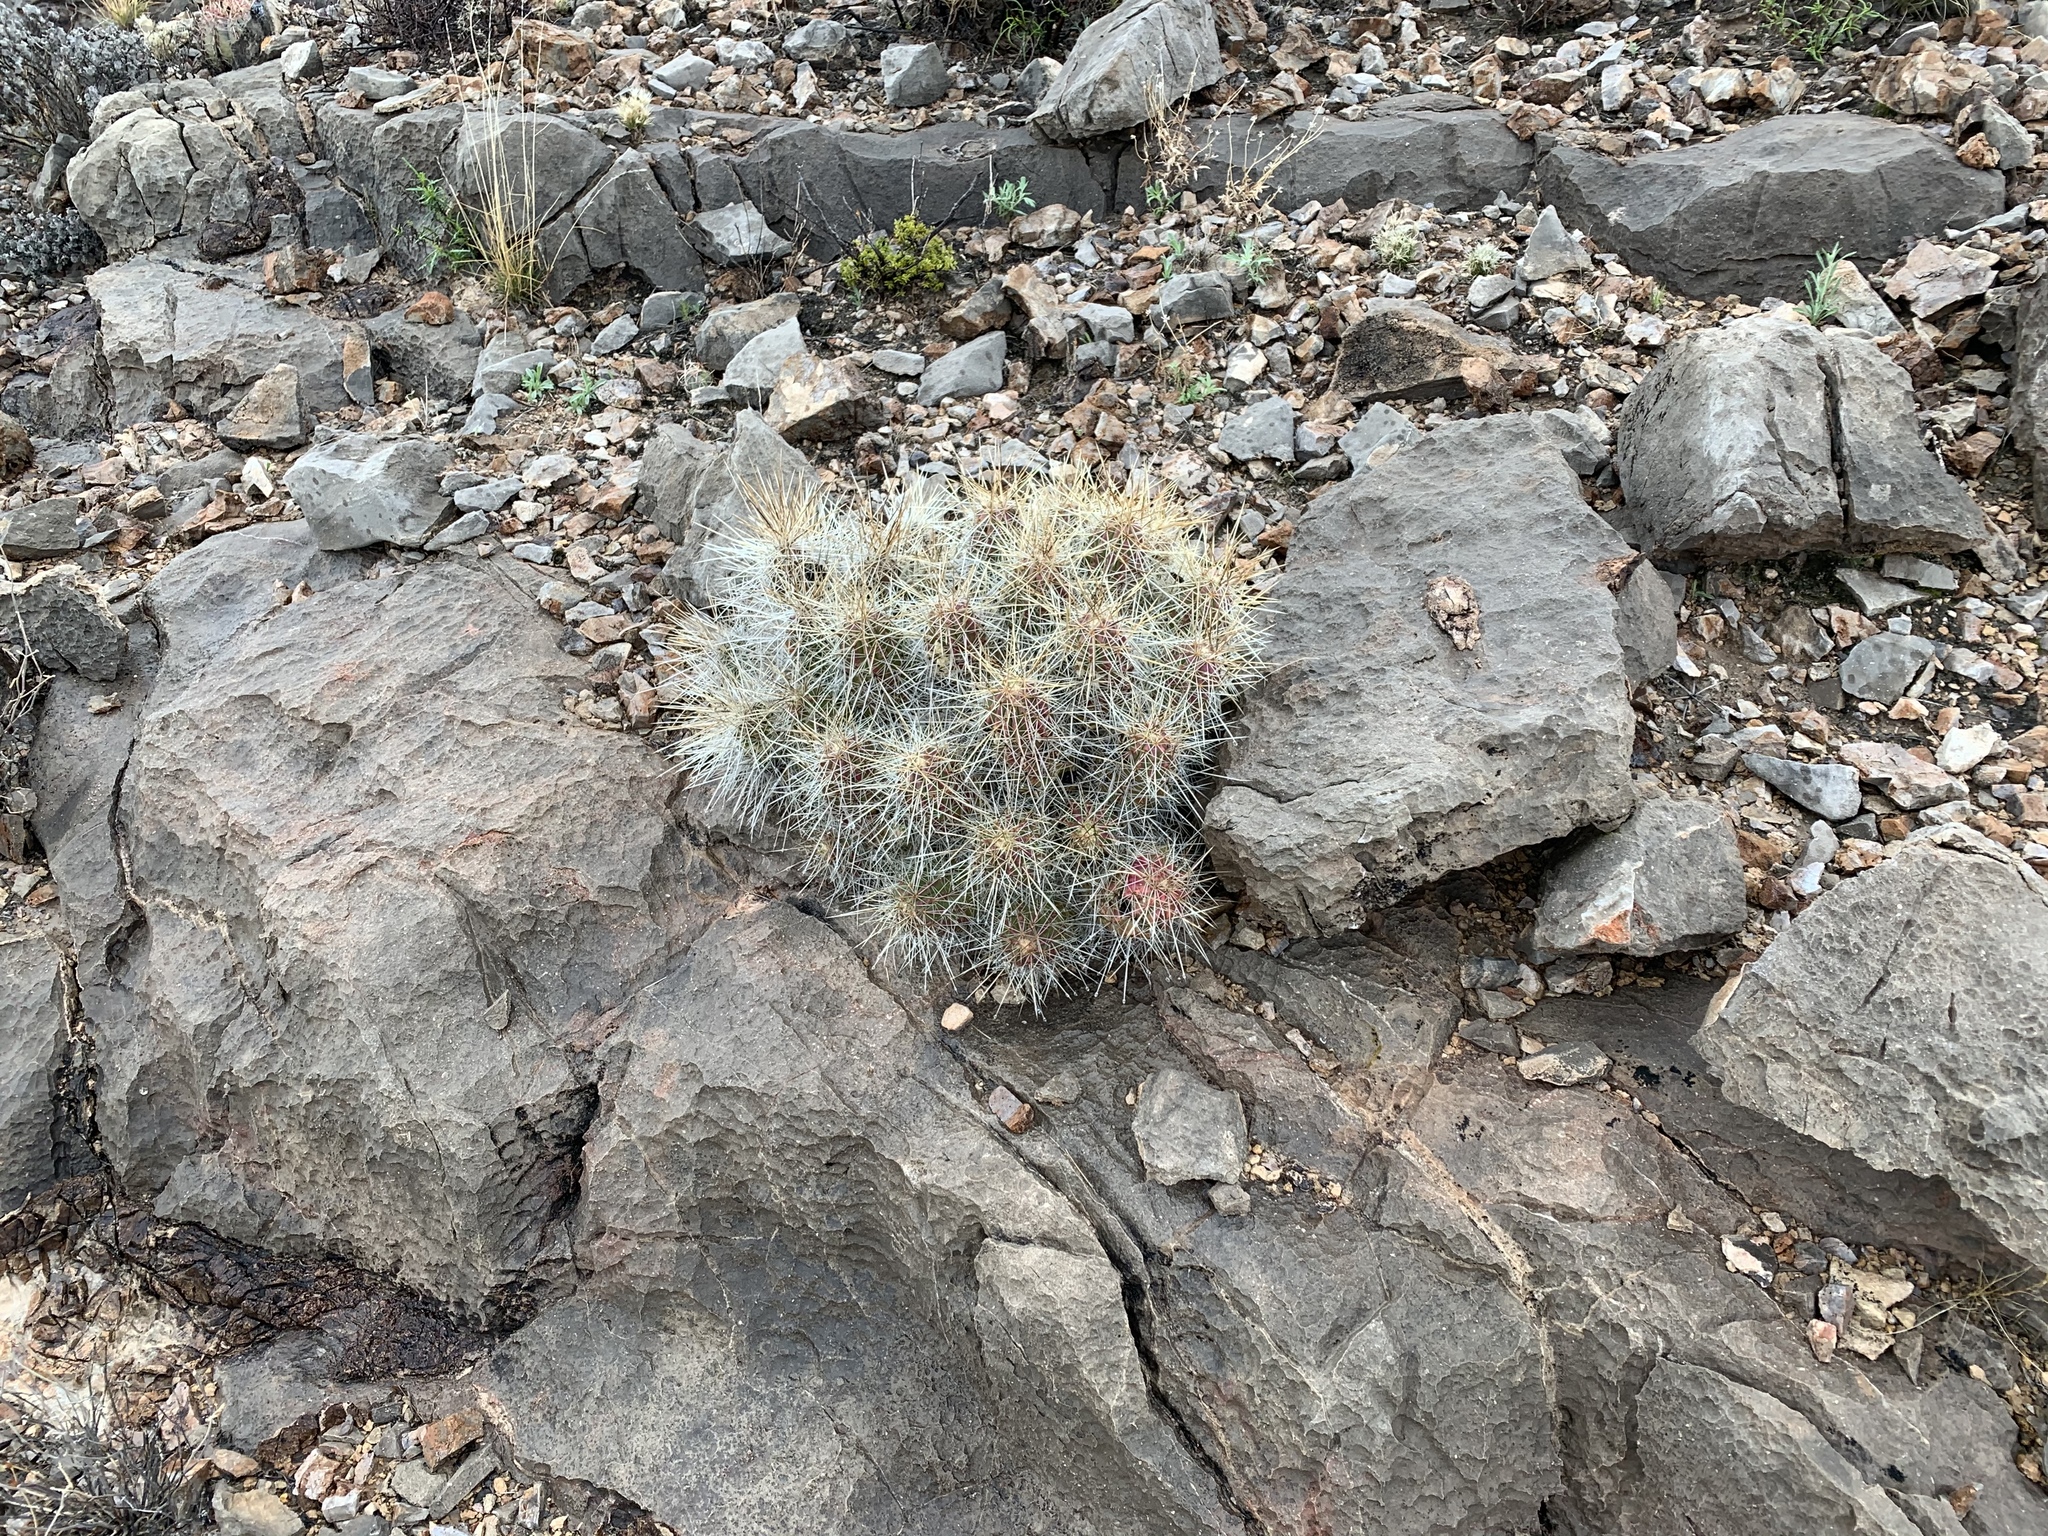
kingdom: Plantae
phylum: Tracheophyta
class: Magnoliopsida
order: Caryophyllales
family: Cactaceae
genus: Echinocereus
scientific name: Echinocereus stramineus
